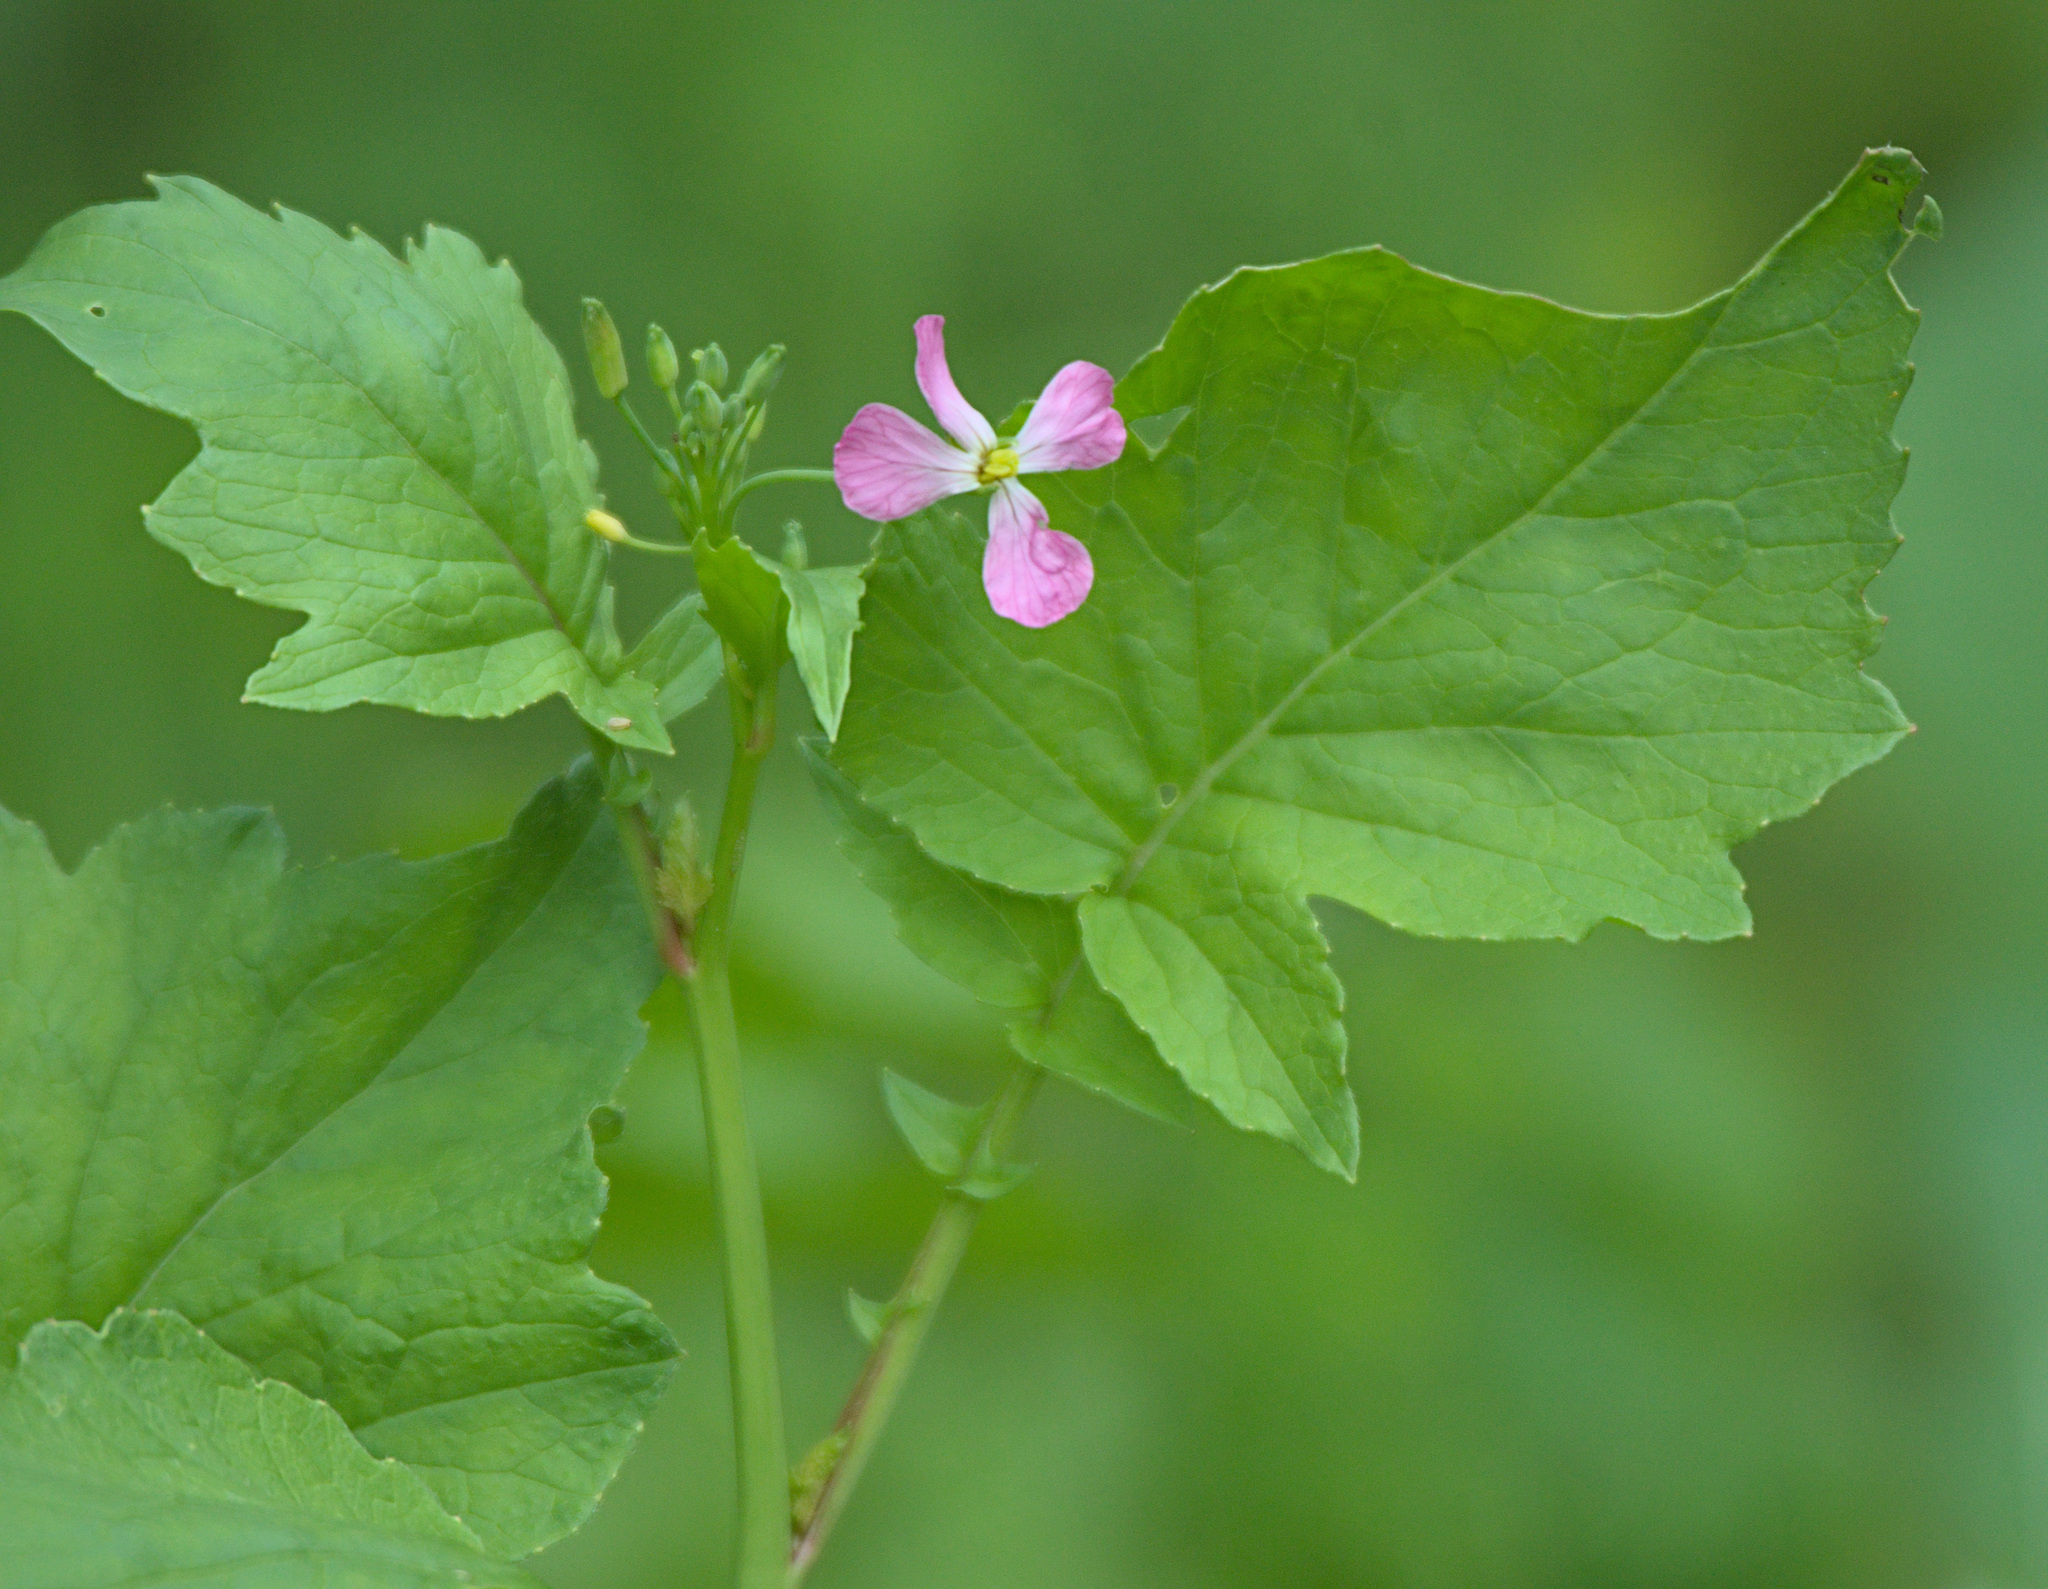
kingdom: Plantae
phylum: Tracheophyta
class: Magnoliopsida
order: Brassicales
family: Brassicaceae
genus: Raphanus
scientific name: Raphanus sativus
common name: Cultivated radish
